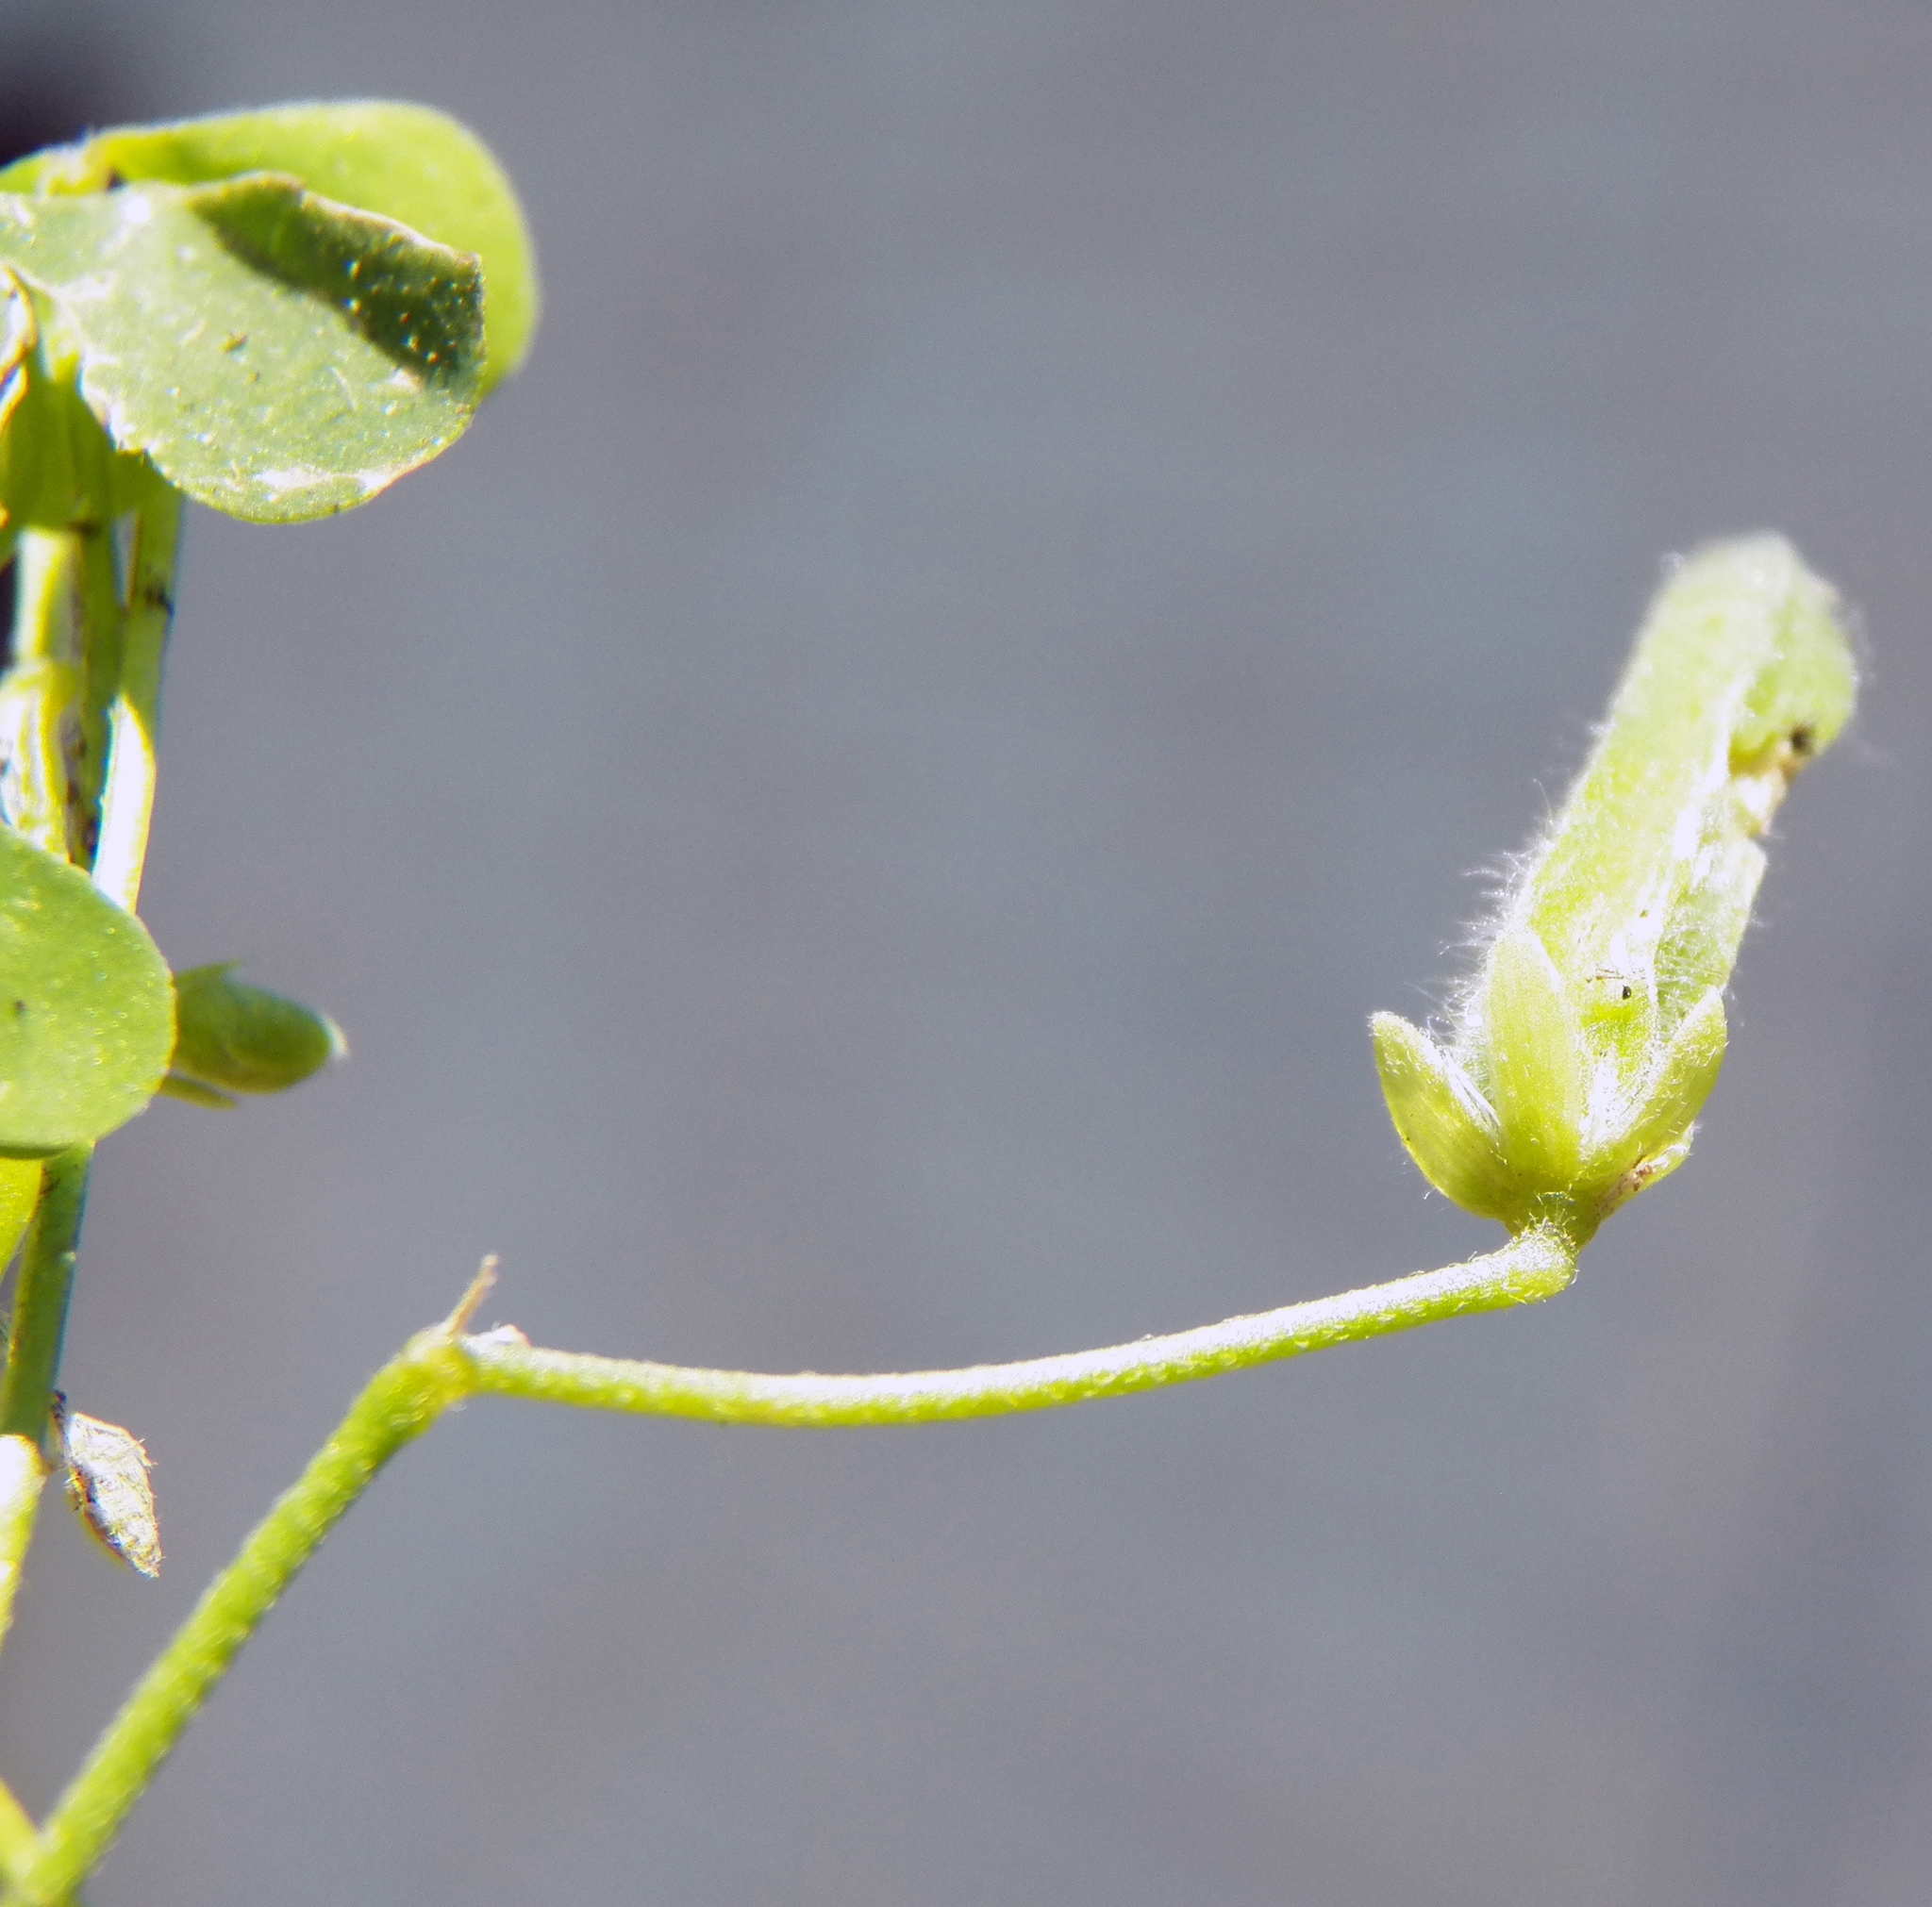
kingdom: Plantae
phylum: Tracheophyta
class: Magnoliopsida
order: Oxalidales
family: Oxalidaceae
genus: Oxalis
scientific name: Oxalis dillenii
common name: Sussex yellow-sorrel
